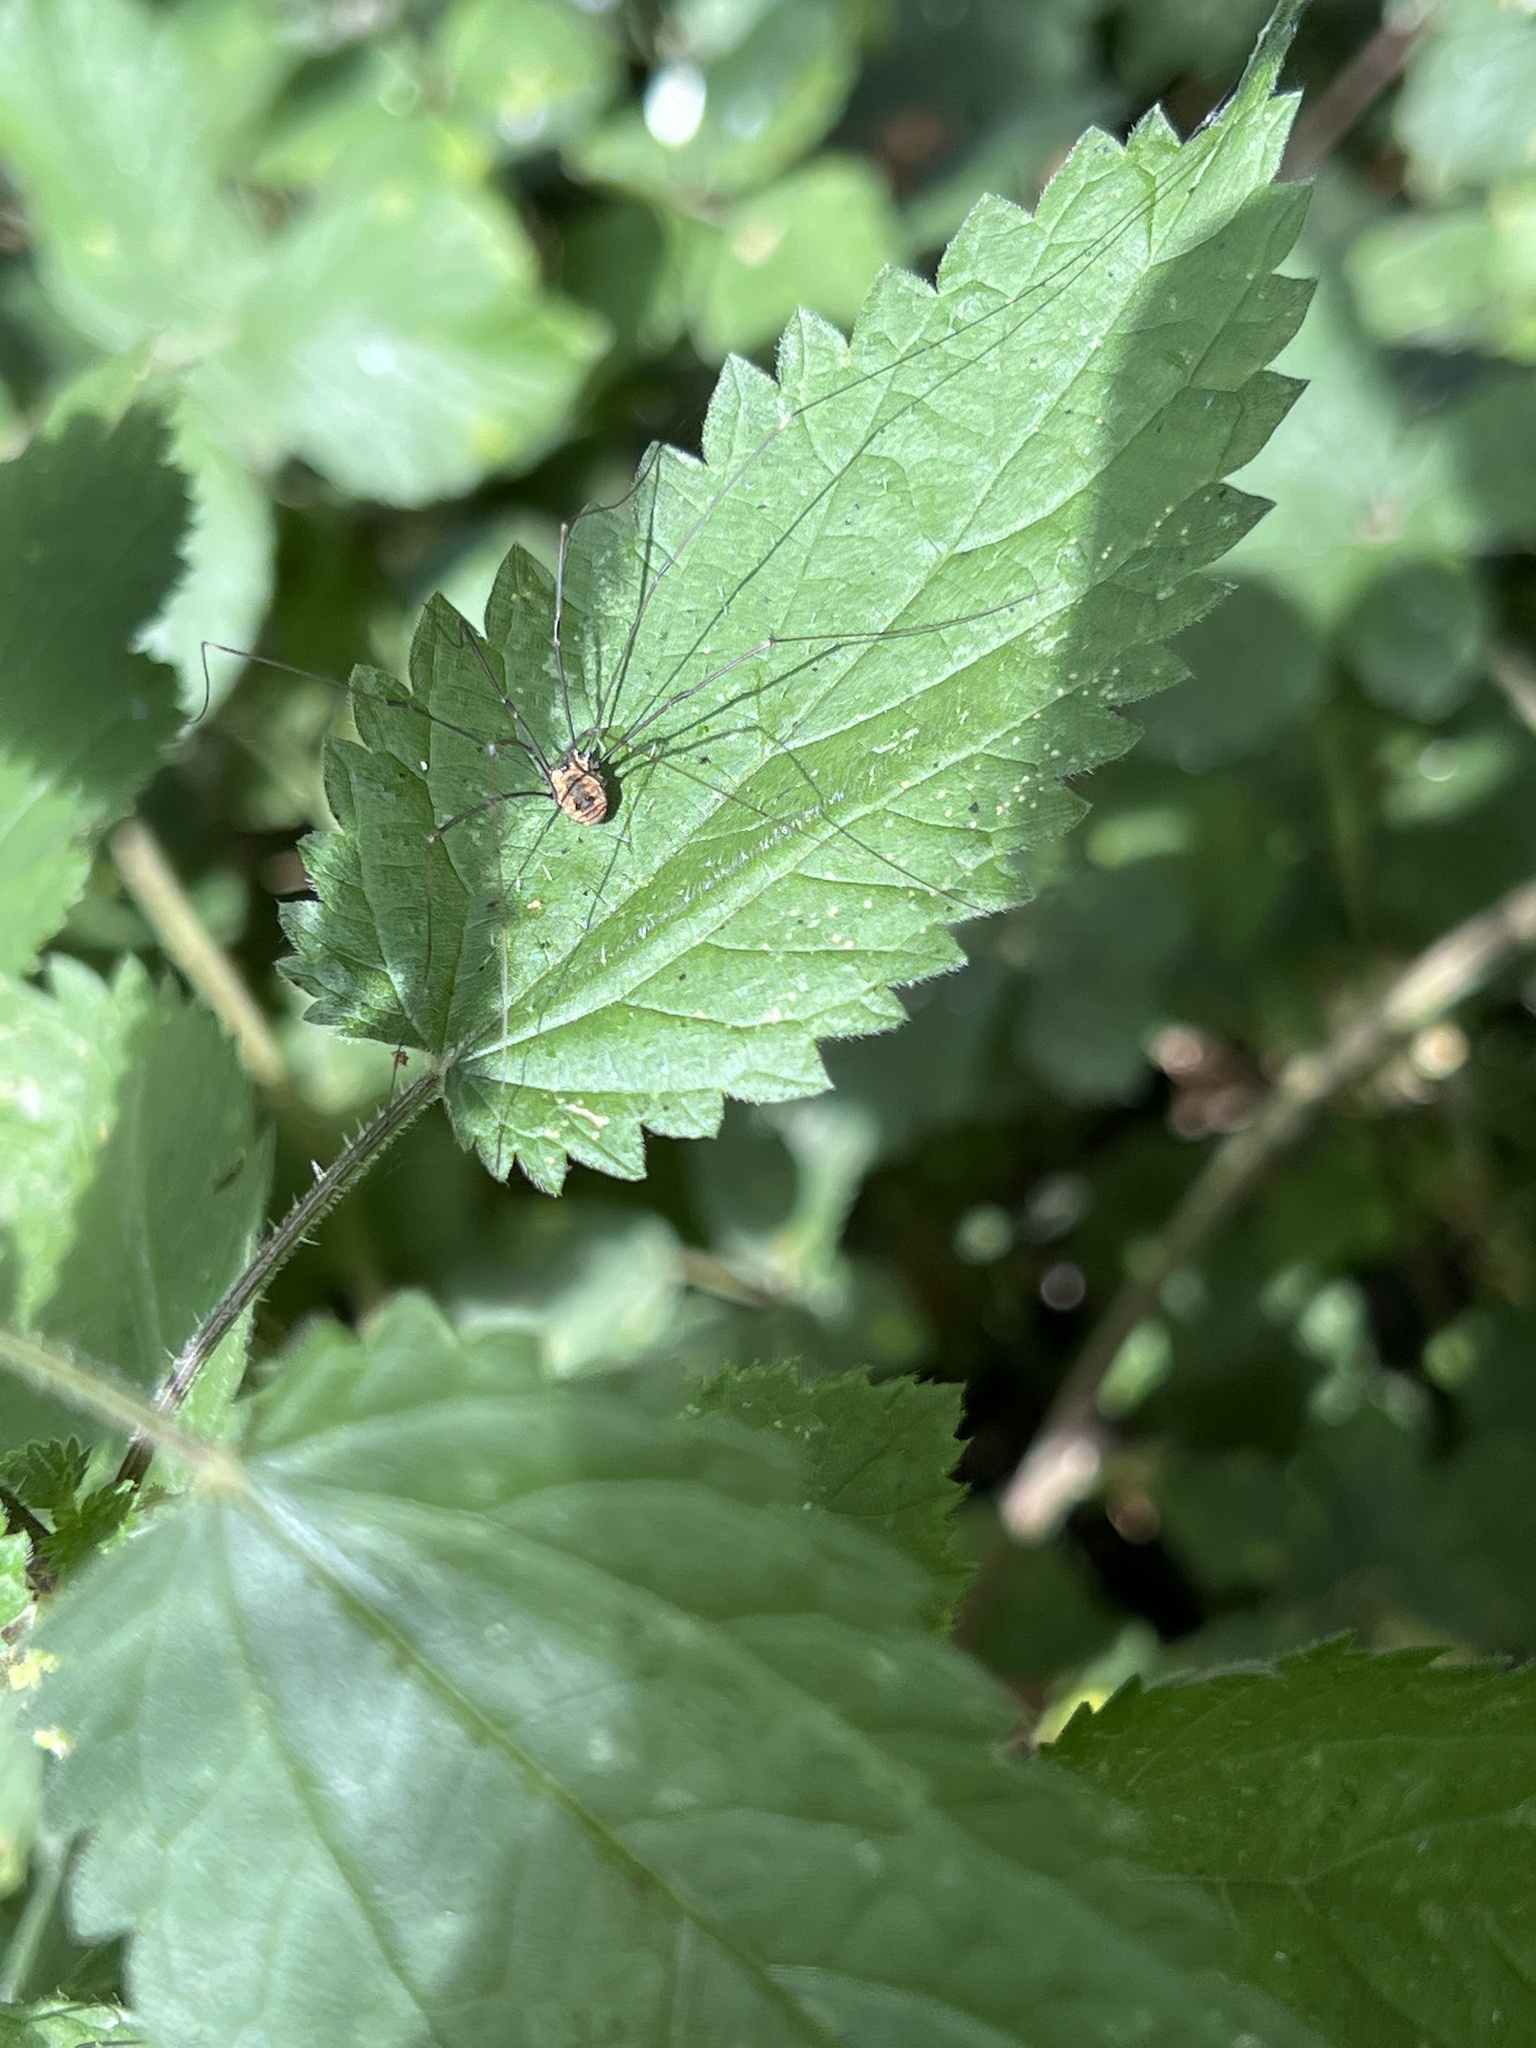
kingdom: Animalia
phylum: Arthropoda
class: Arachnida
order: Opiliones
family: Sclerosomatidae
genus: Leiobunum
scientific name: Leiobunum rotundum
